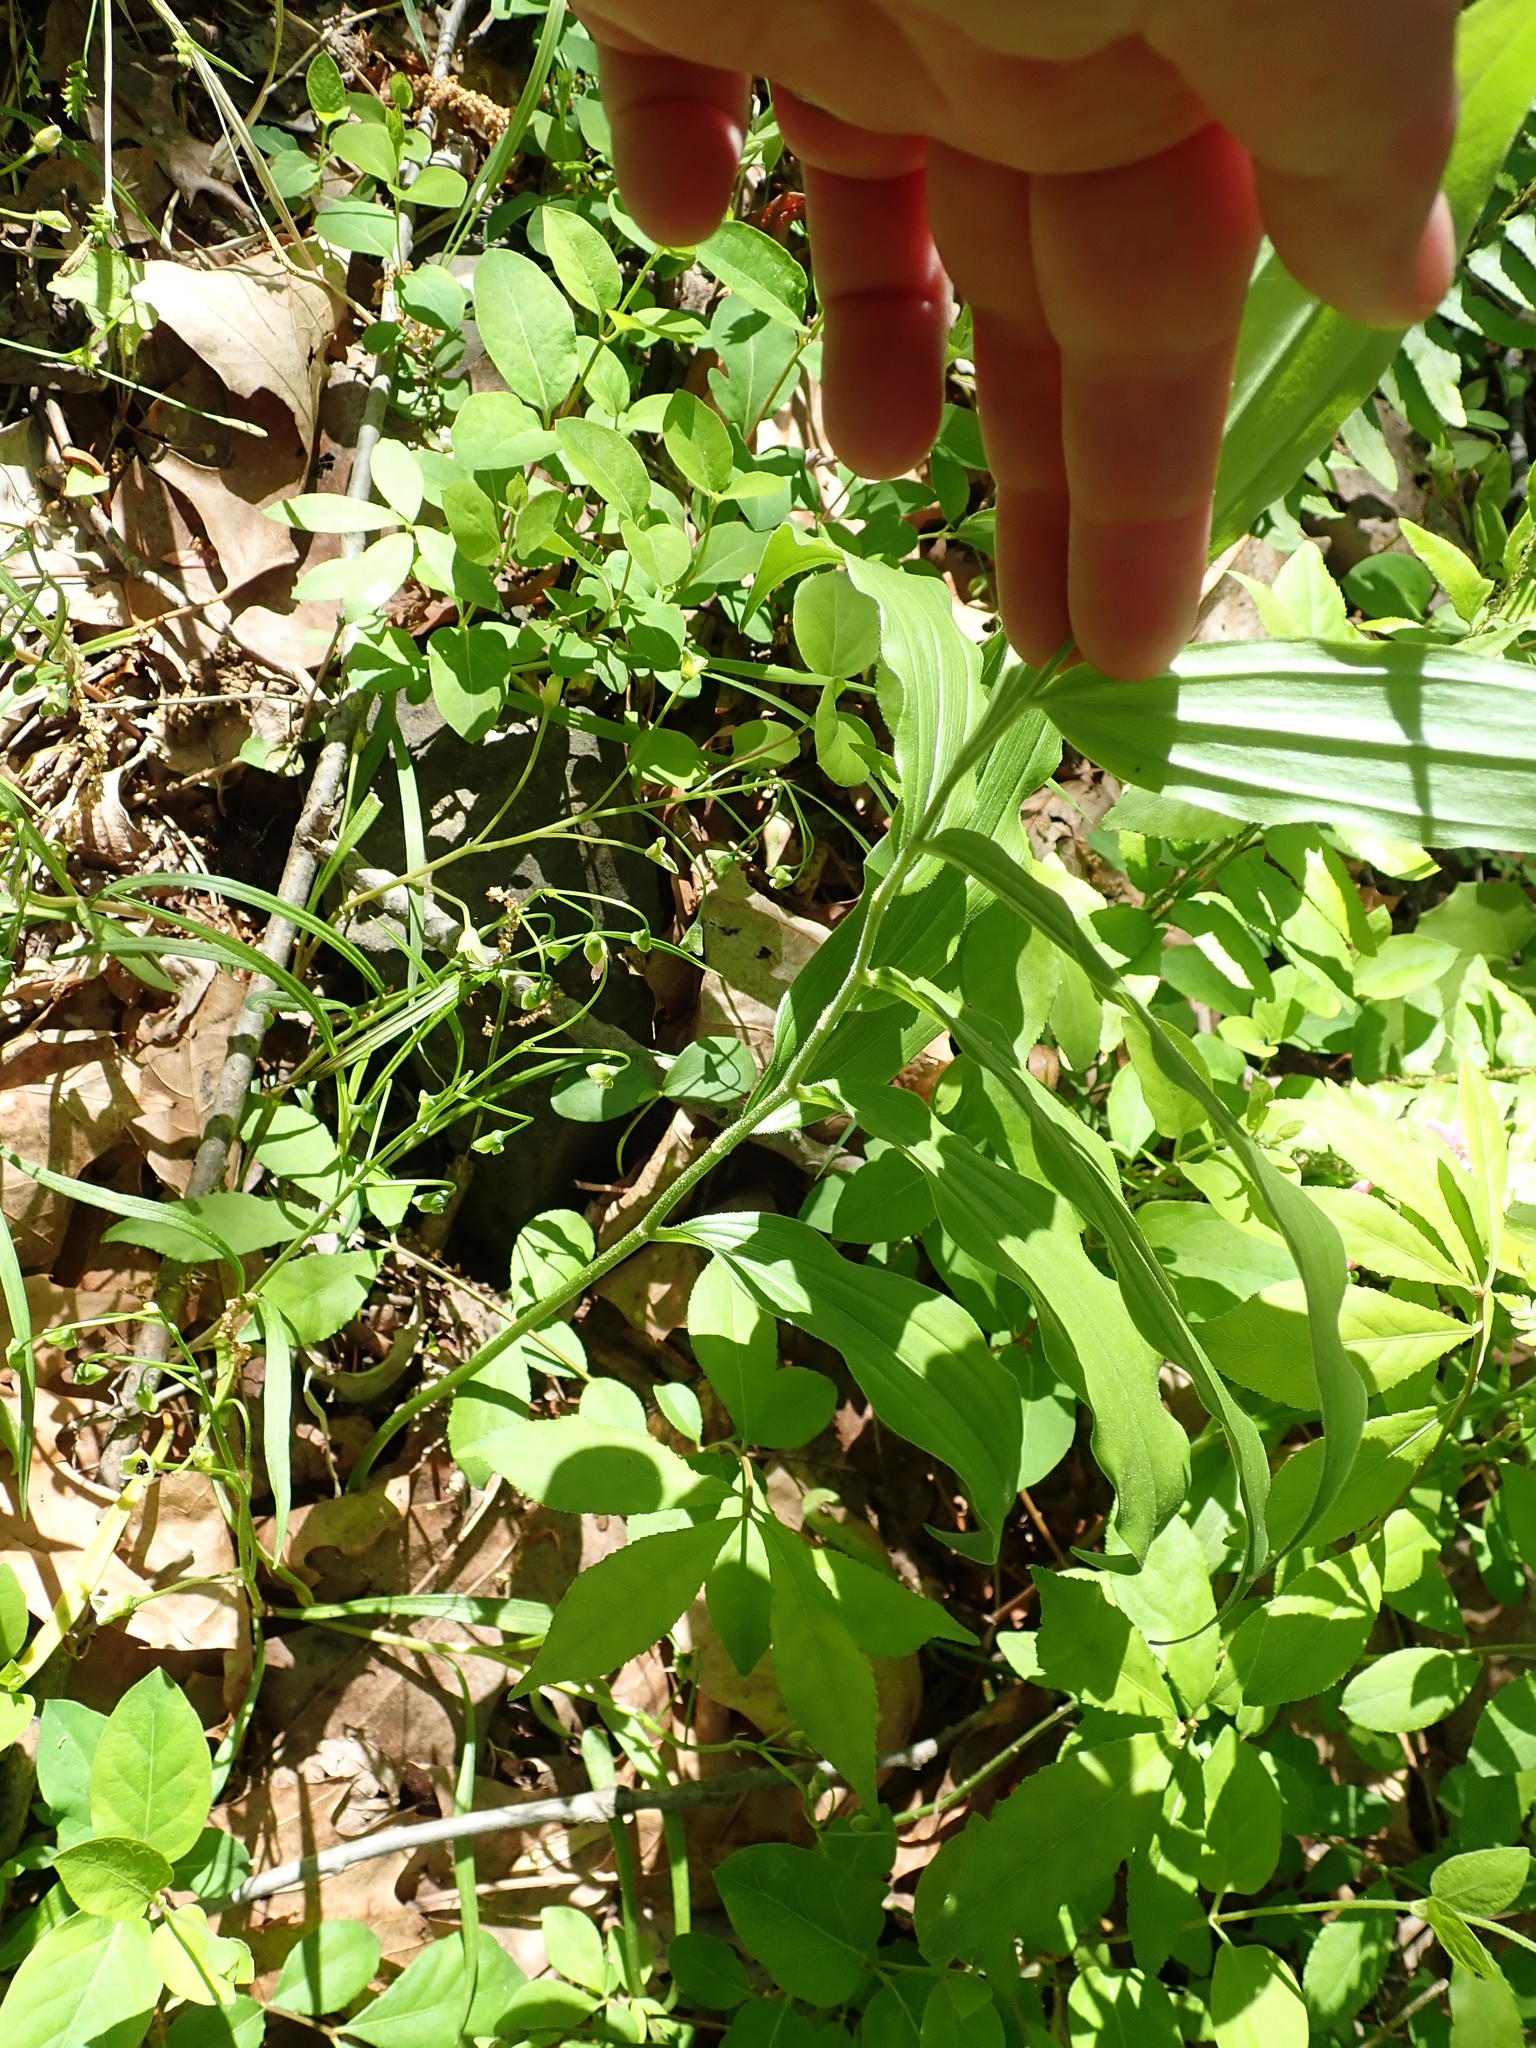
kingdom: Plantae
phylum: Tracheophyta
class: Liliopsida
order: Asparagales
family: Asparagaceae
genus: Maianthemum
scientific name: Maianthemum racemosum
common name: False spikenard
